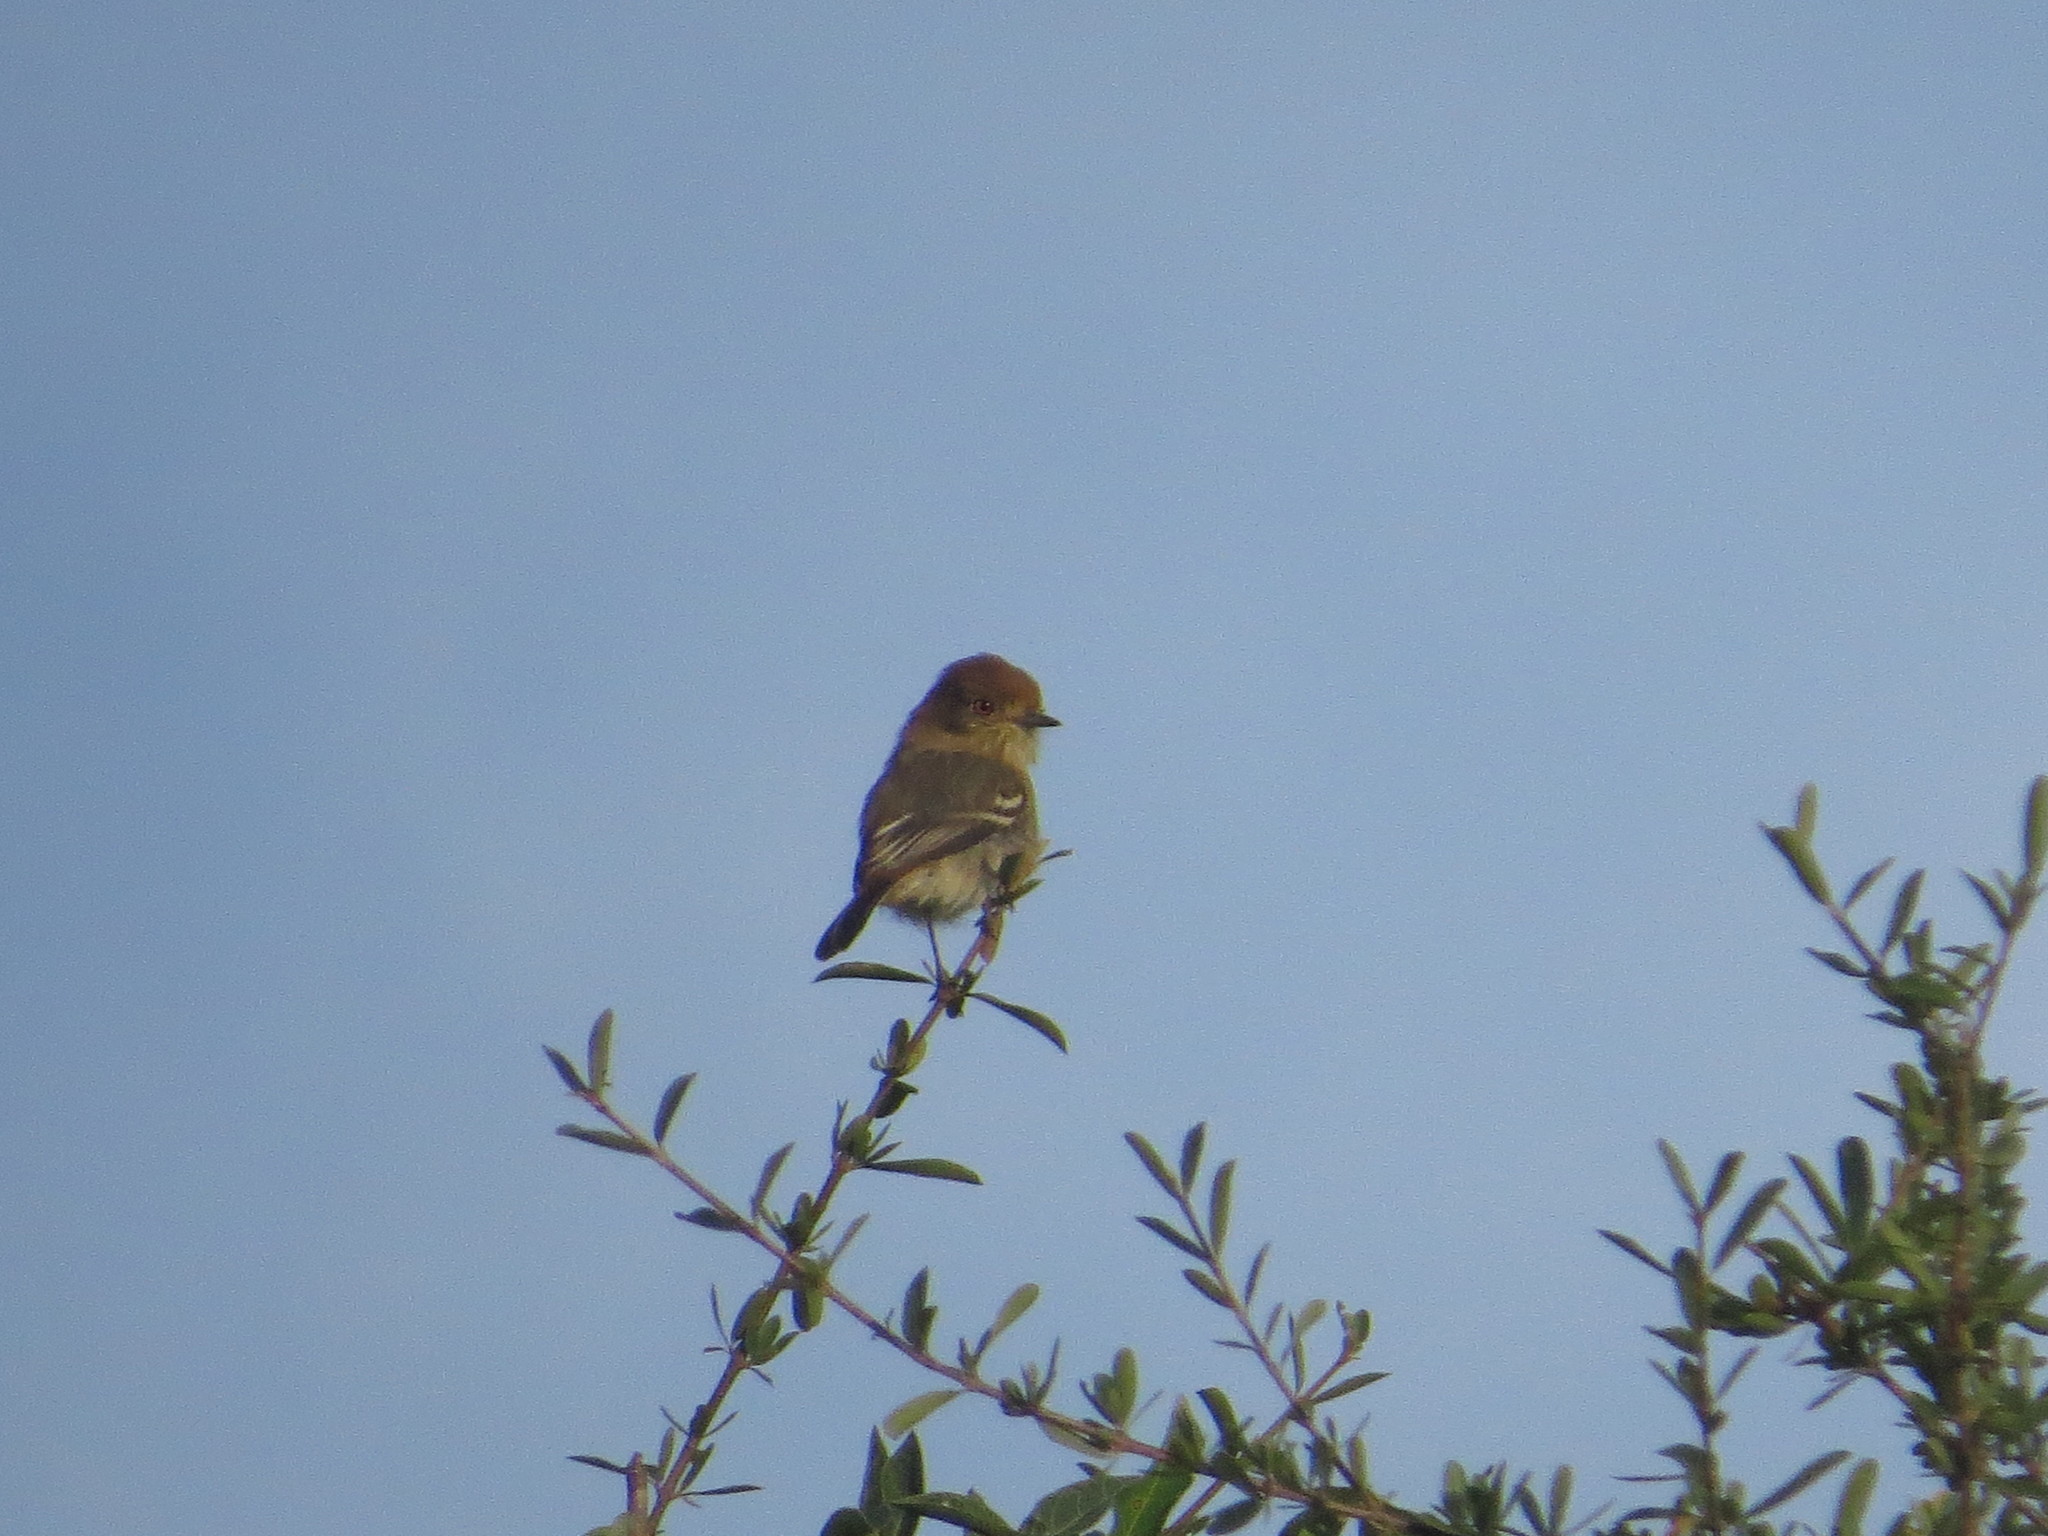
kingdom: Animalia
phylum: Chordata
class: Aves
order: Passeriformes
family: Tyrannidae
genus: Knipolegus
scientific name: Knipolegus striaticeps
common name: Cinereous tyrant
